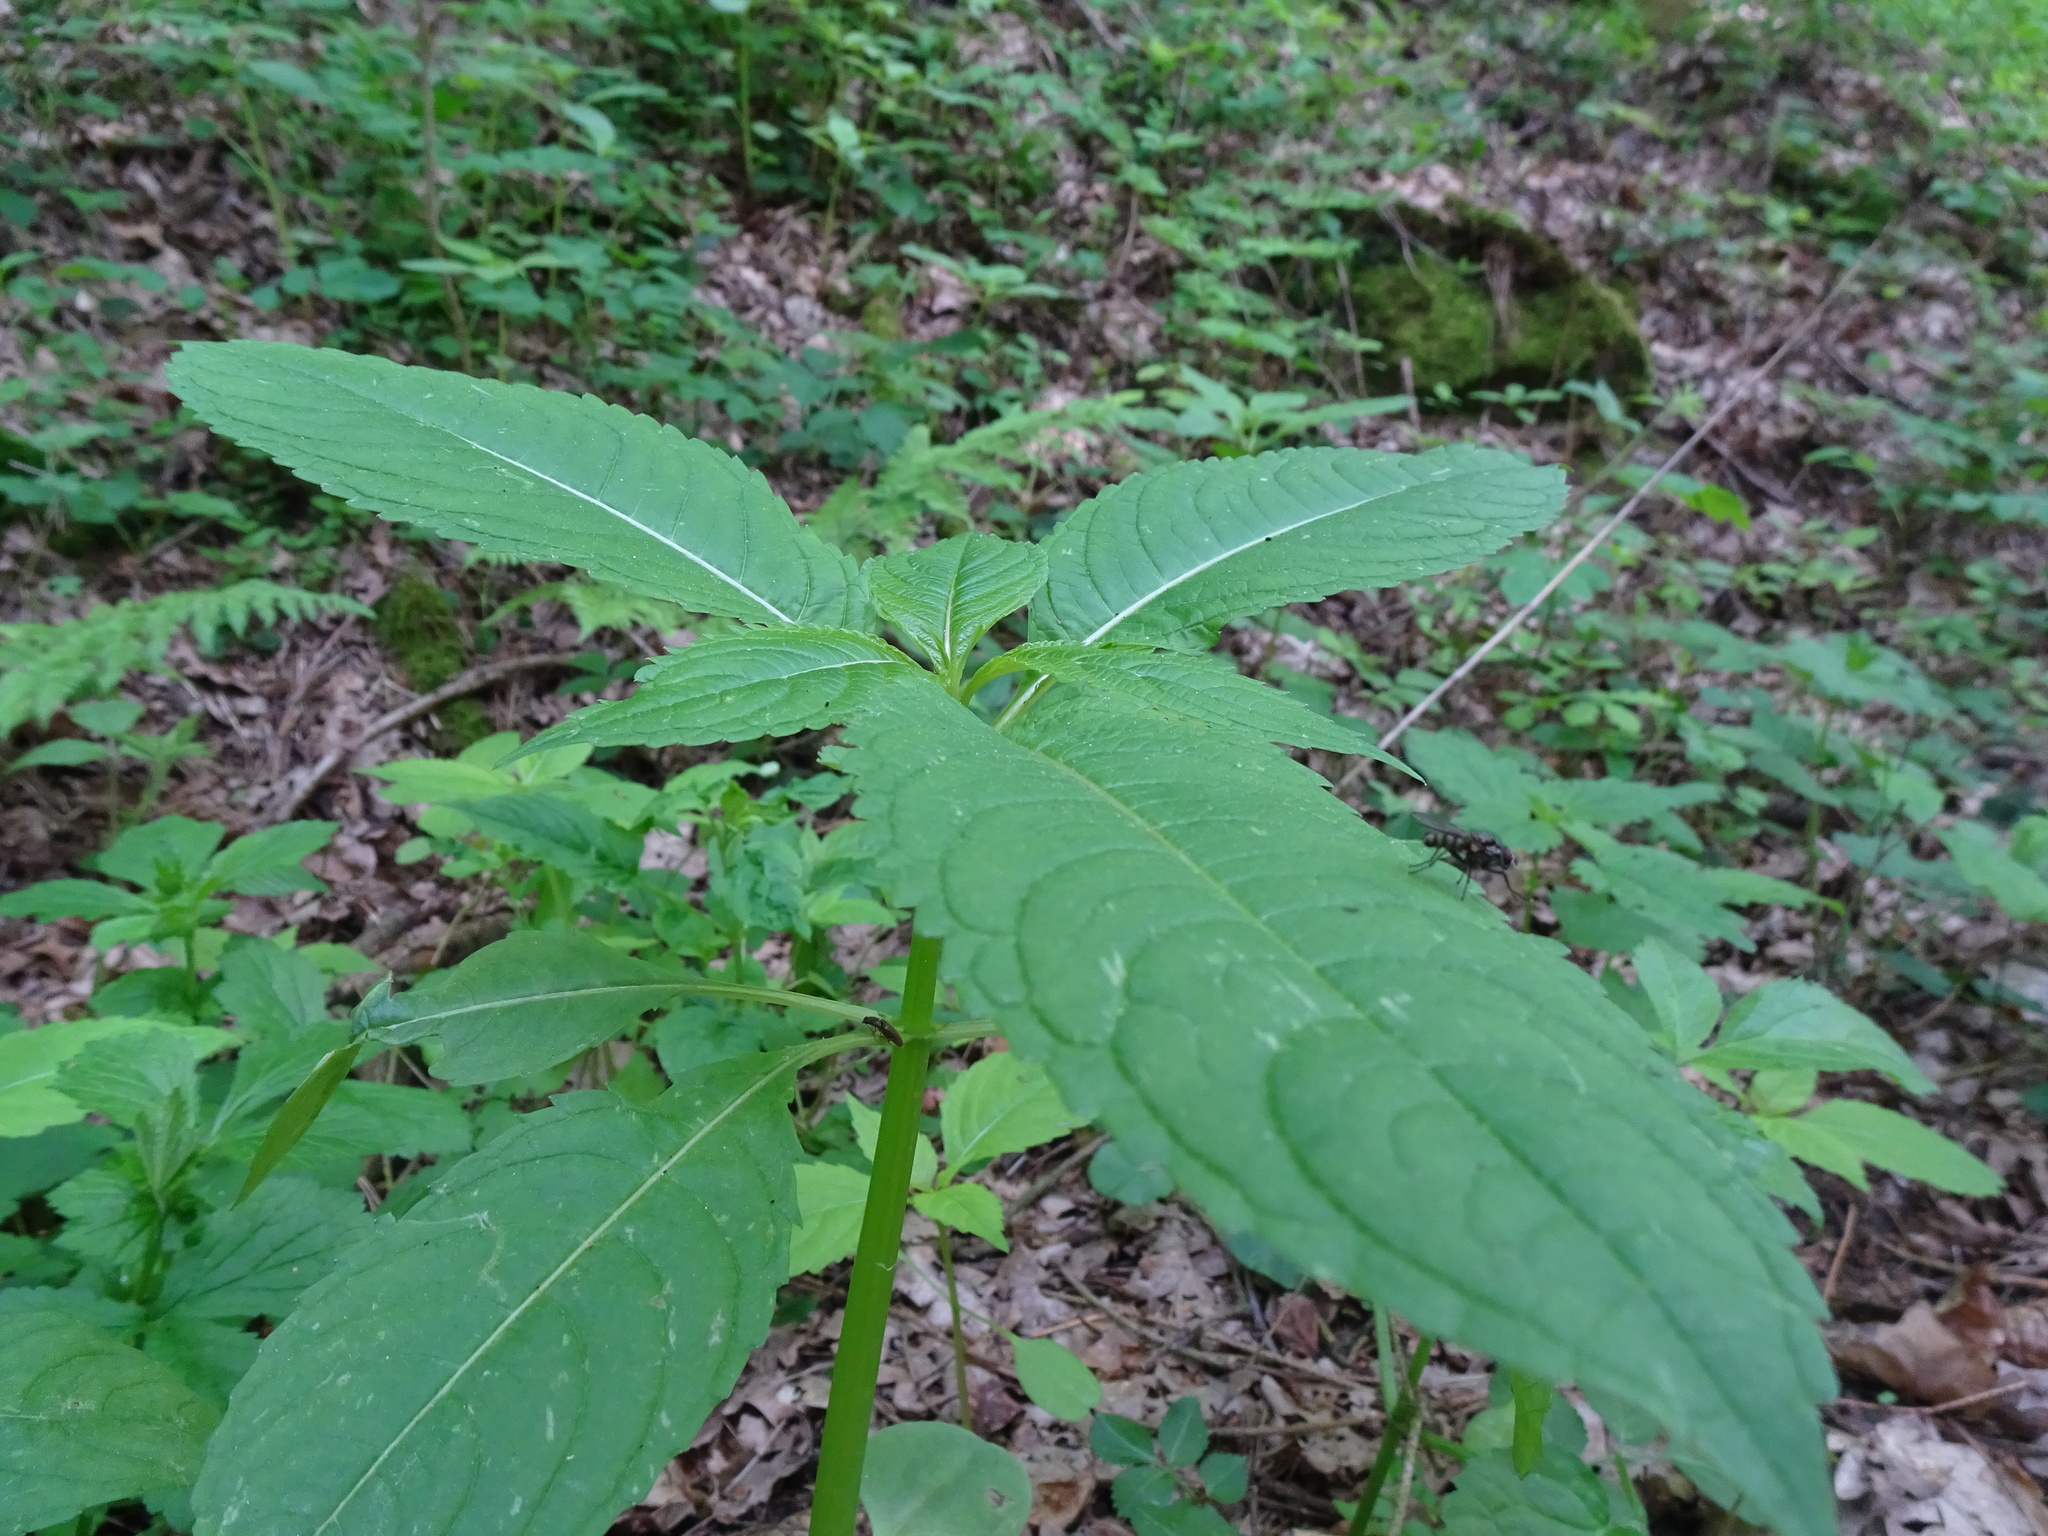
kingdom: Plantae
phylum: Tracheophyta
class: Magnoliopsida
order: Ericales
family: Balsaminaceae
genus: Impatiens
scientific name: Impatiens parviflora
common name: Small balsam
